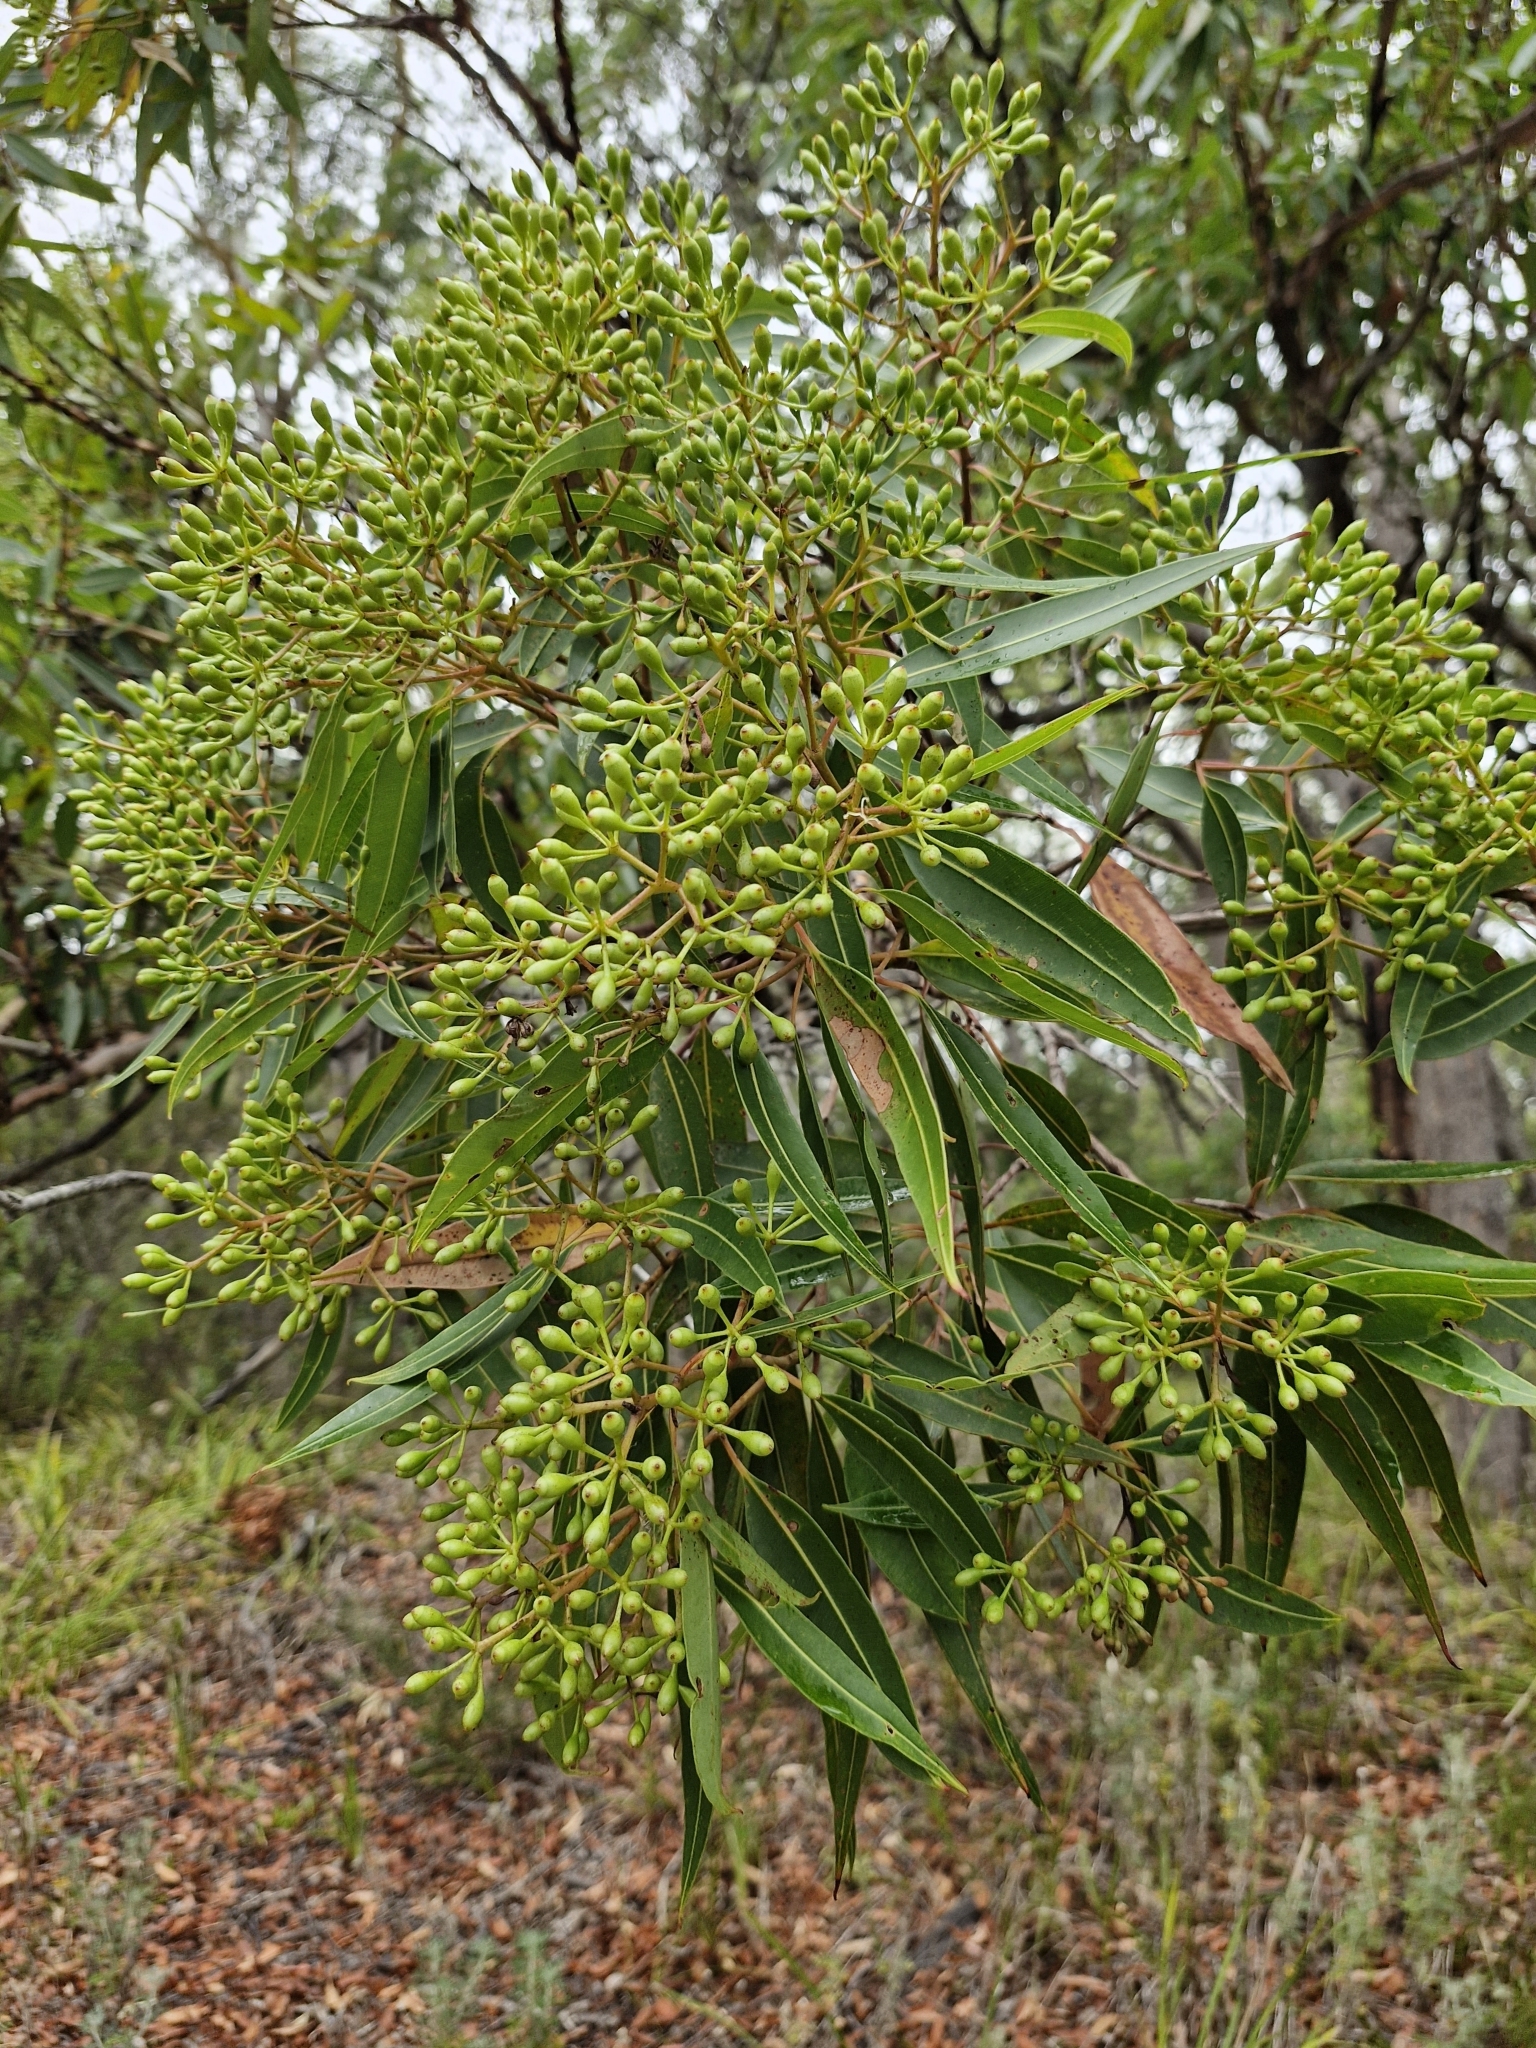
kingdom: Plantae
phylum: Tracheophyta
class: Magnoliopsida
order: Myrtales
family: Myrtaceae
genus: Corymbia
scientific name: Corymbia gummifera
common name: Red bloodwood
